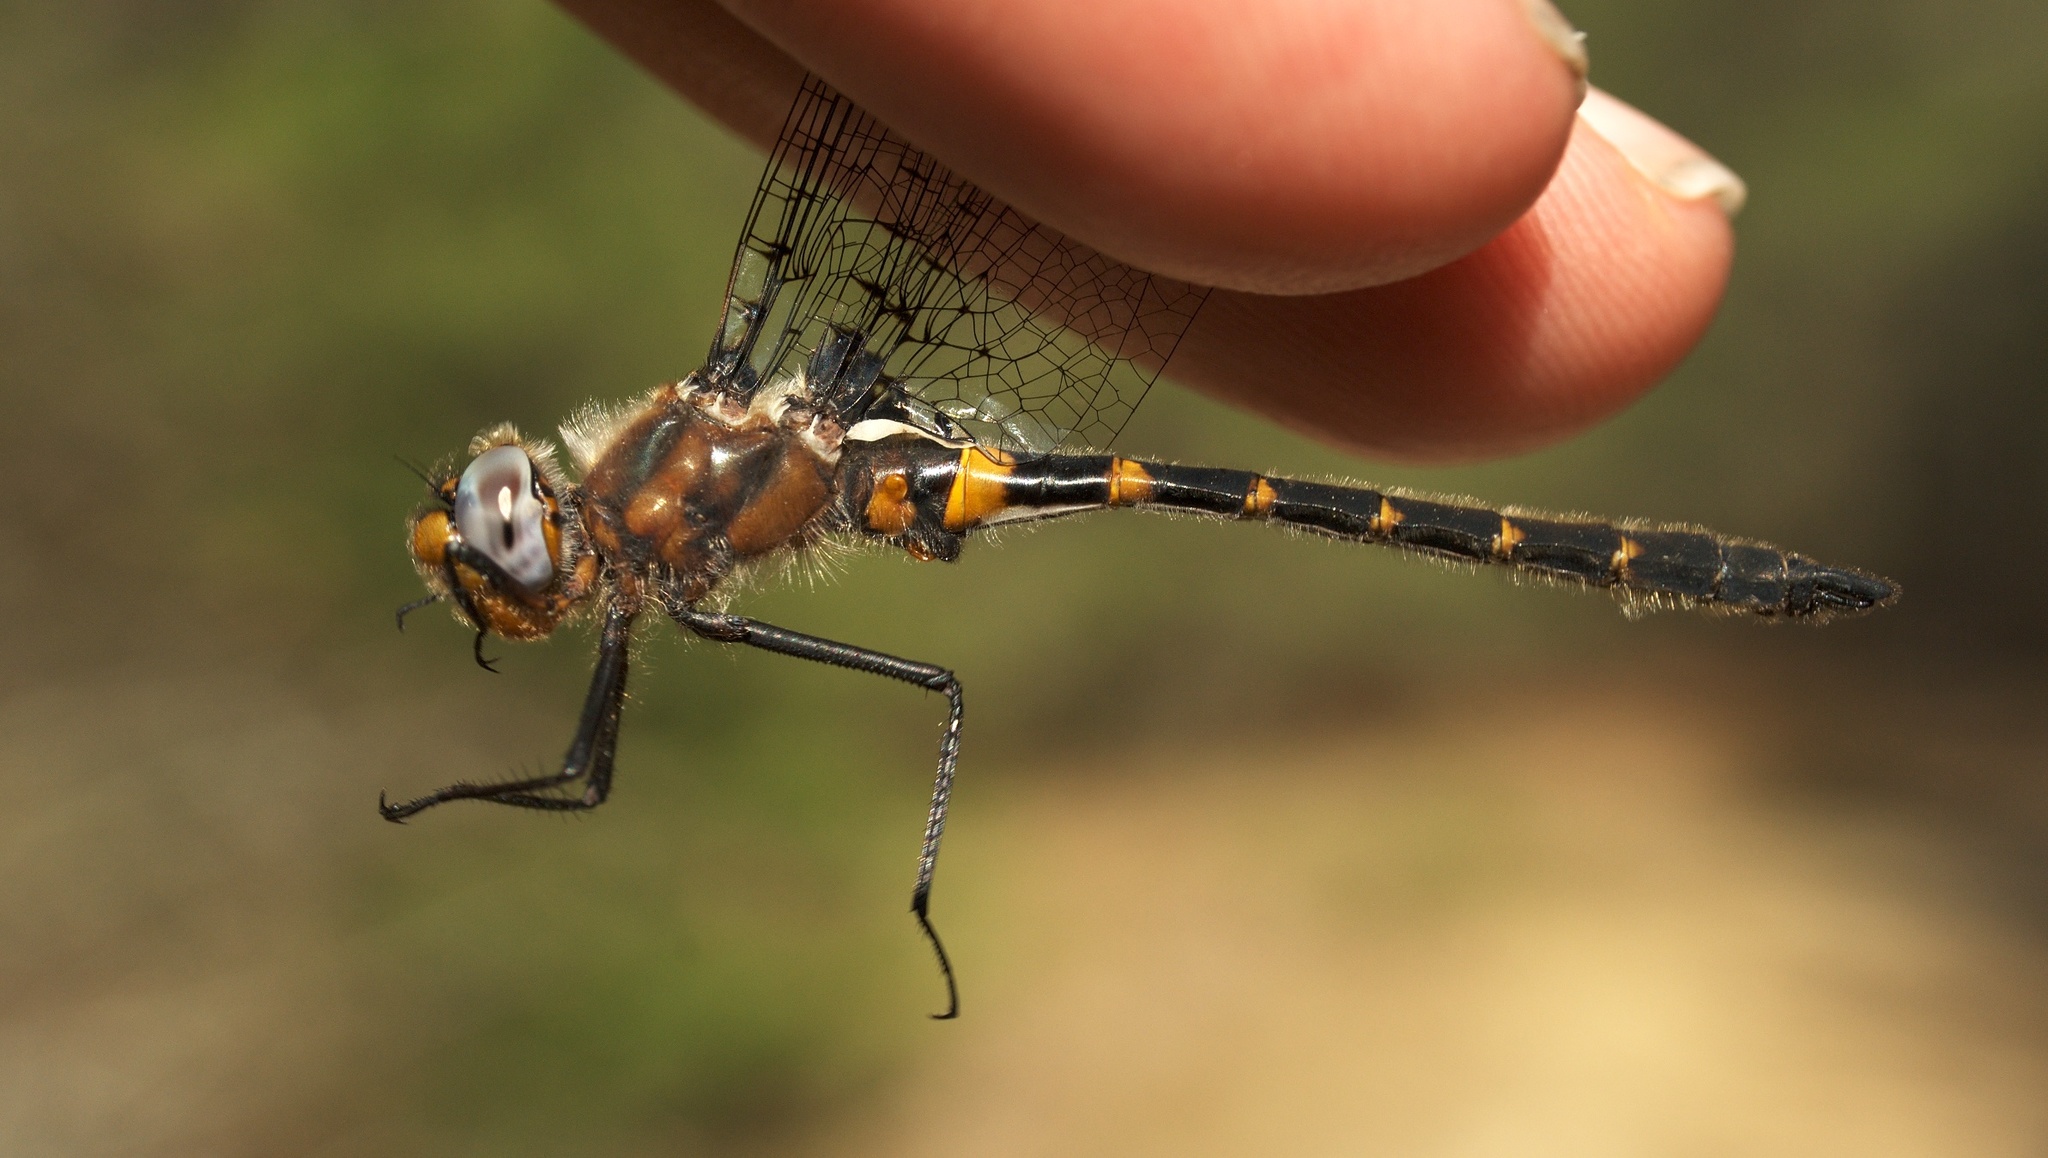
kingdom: Animalia
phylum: Arthropoda
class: Insecta
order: Odonata
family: Corduliidae
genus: Helocordulia
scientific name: Helocordulia selysii
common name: Selys's sundragon
